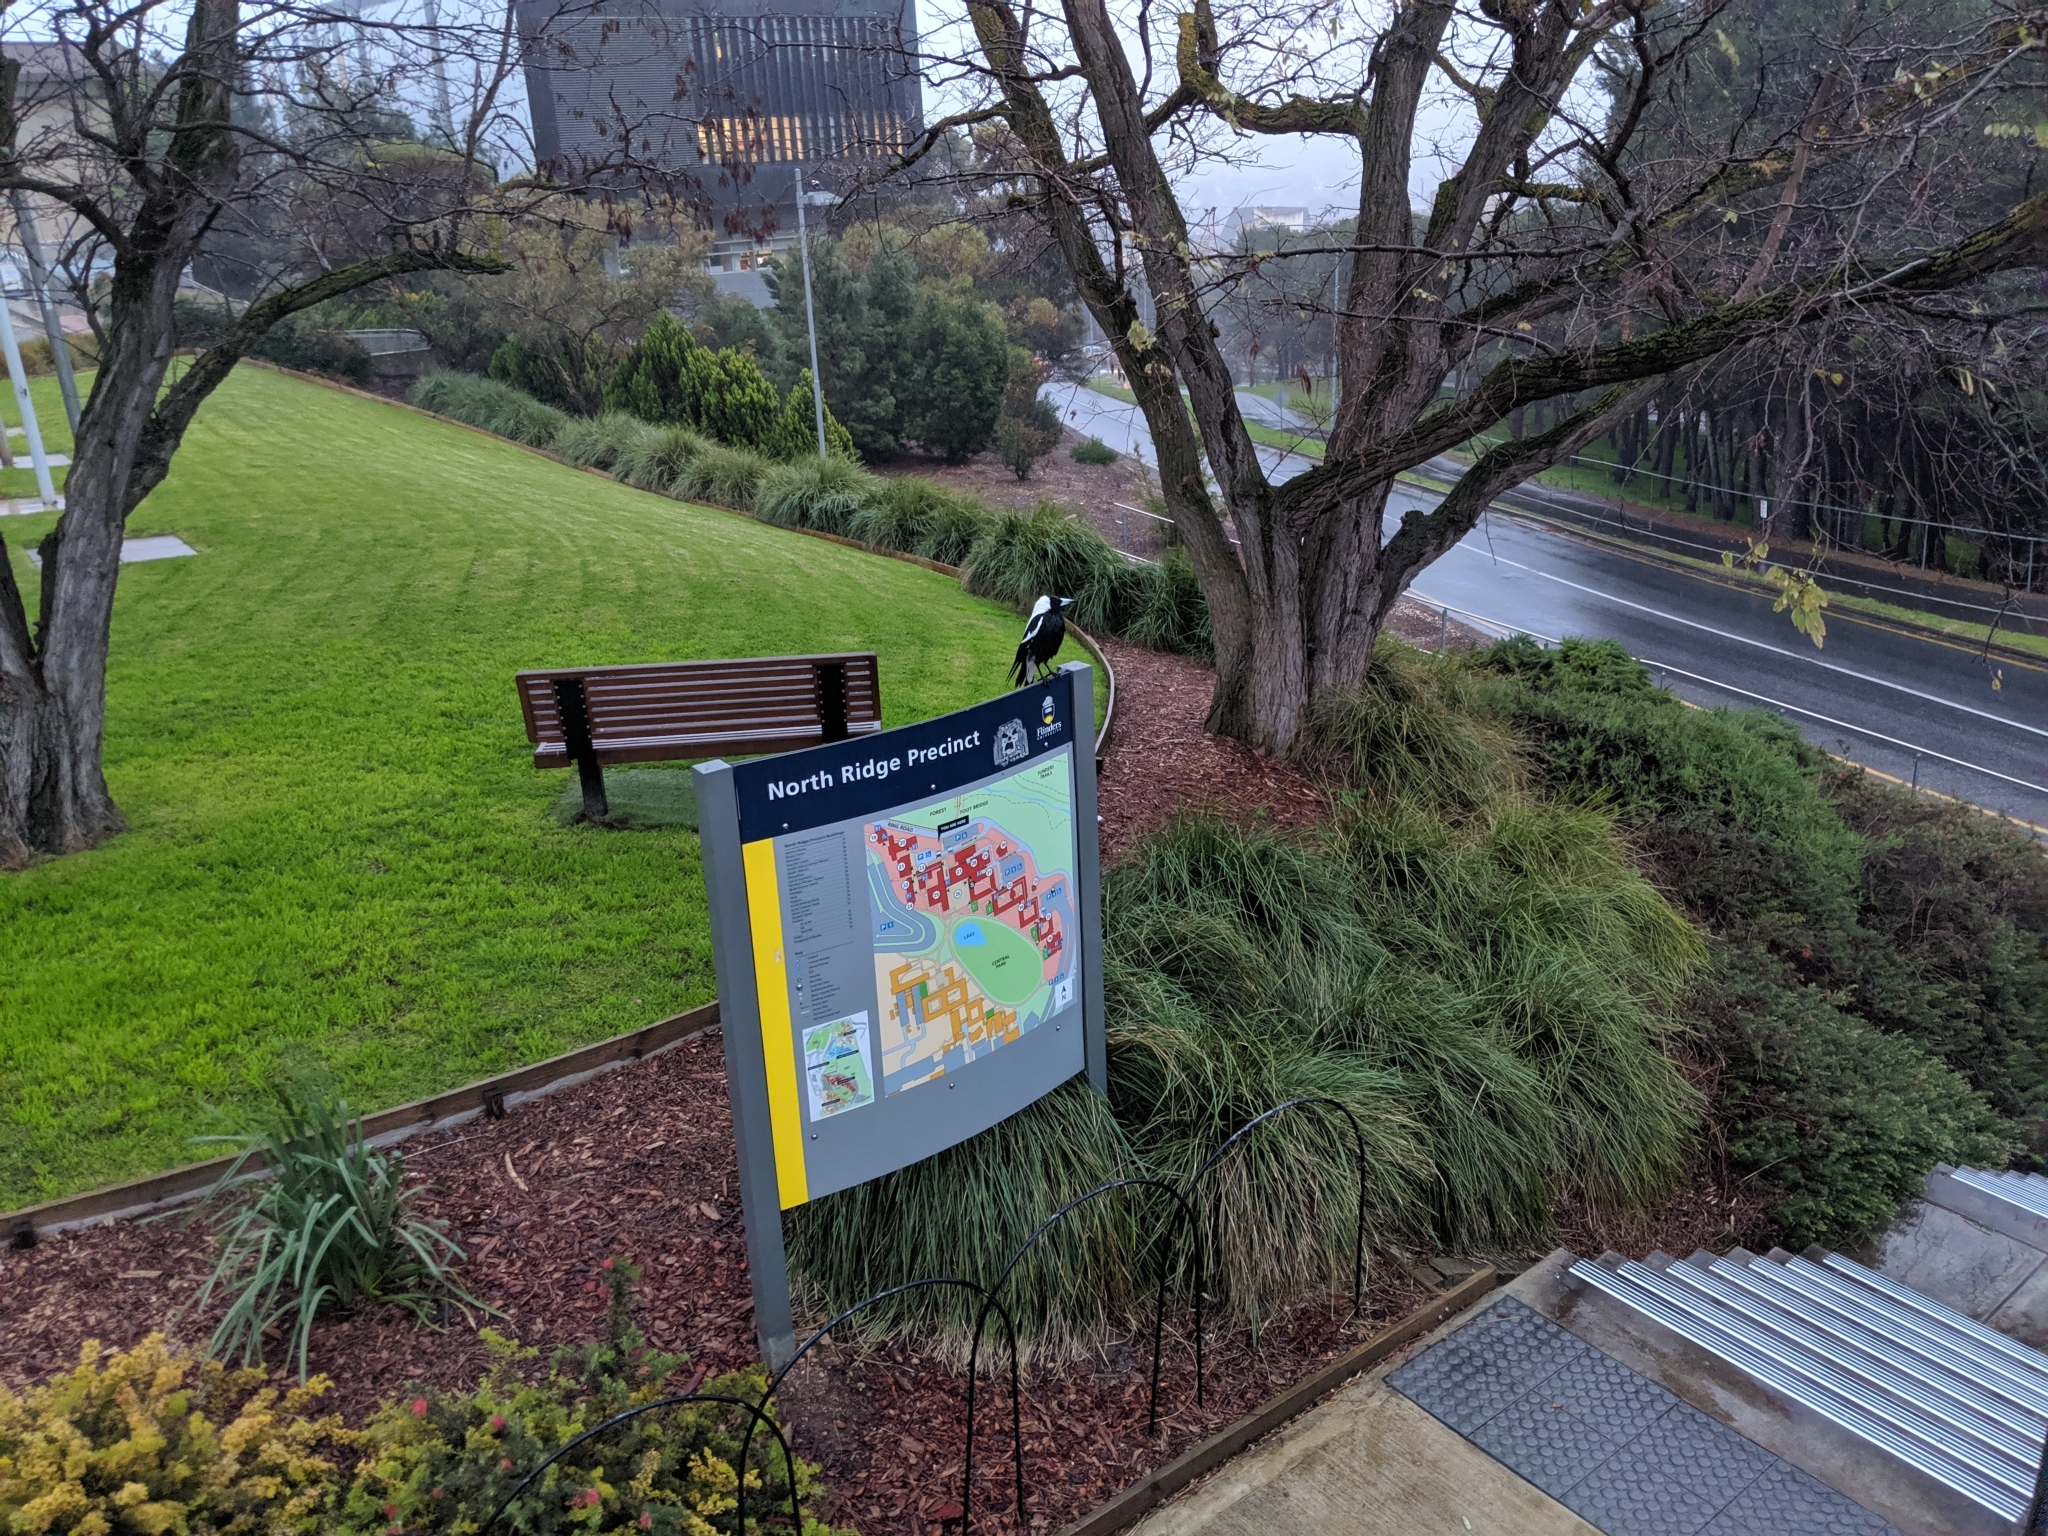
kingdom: Animalia
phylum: Chordata
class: Aves
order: Passeriformes
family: Cracticidae
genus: Gymnorhina
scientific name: Gymnorhina tibicen
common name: Australian magpie
